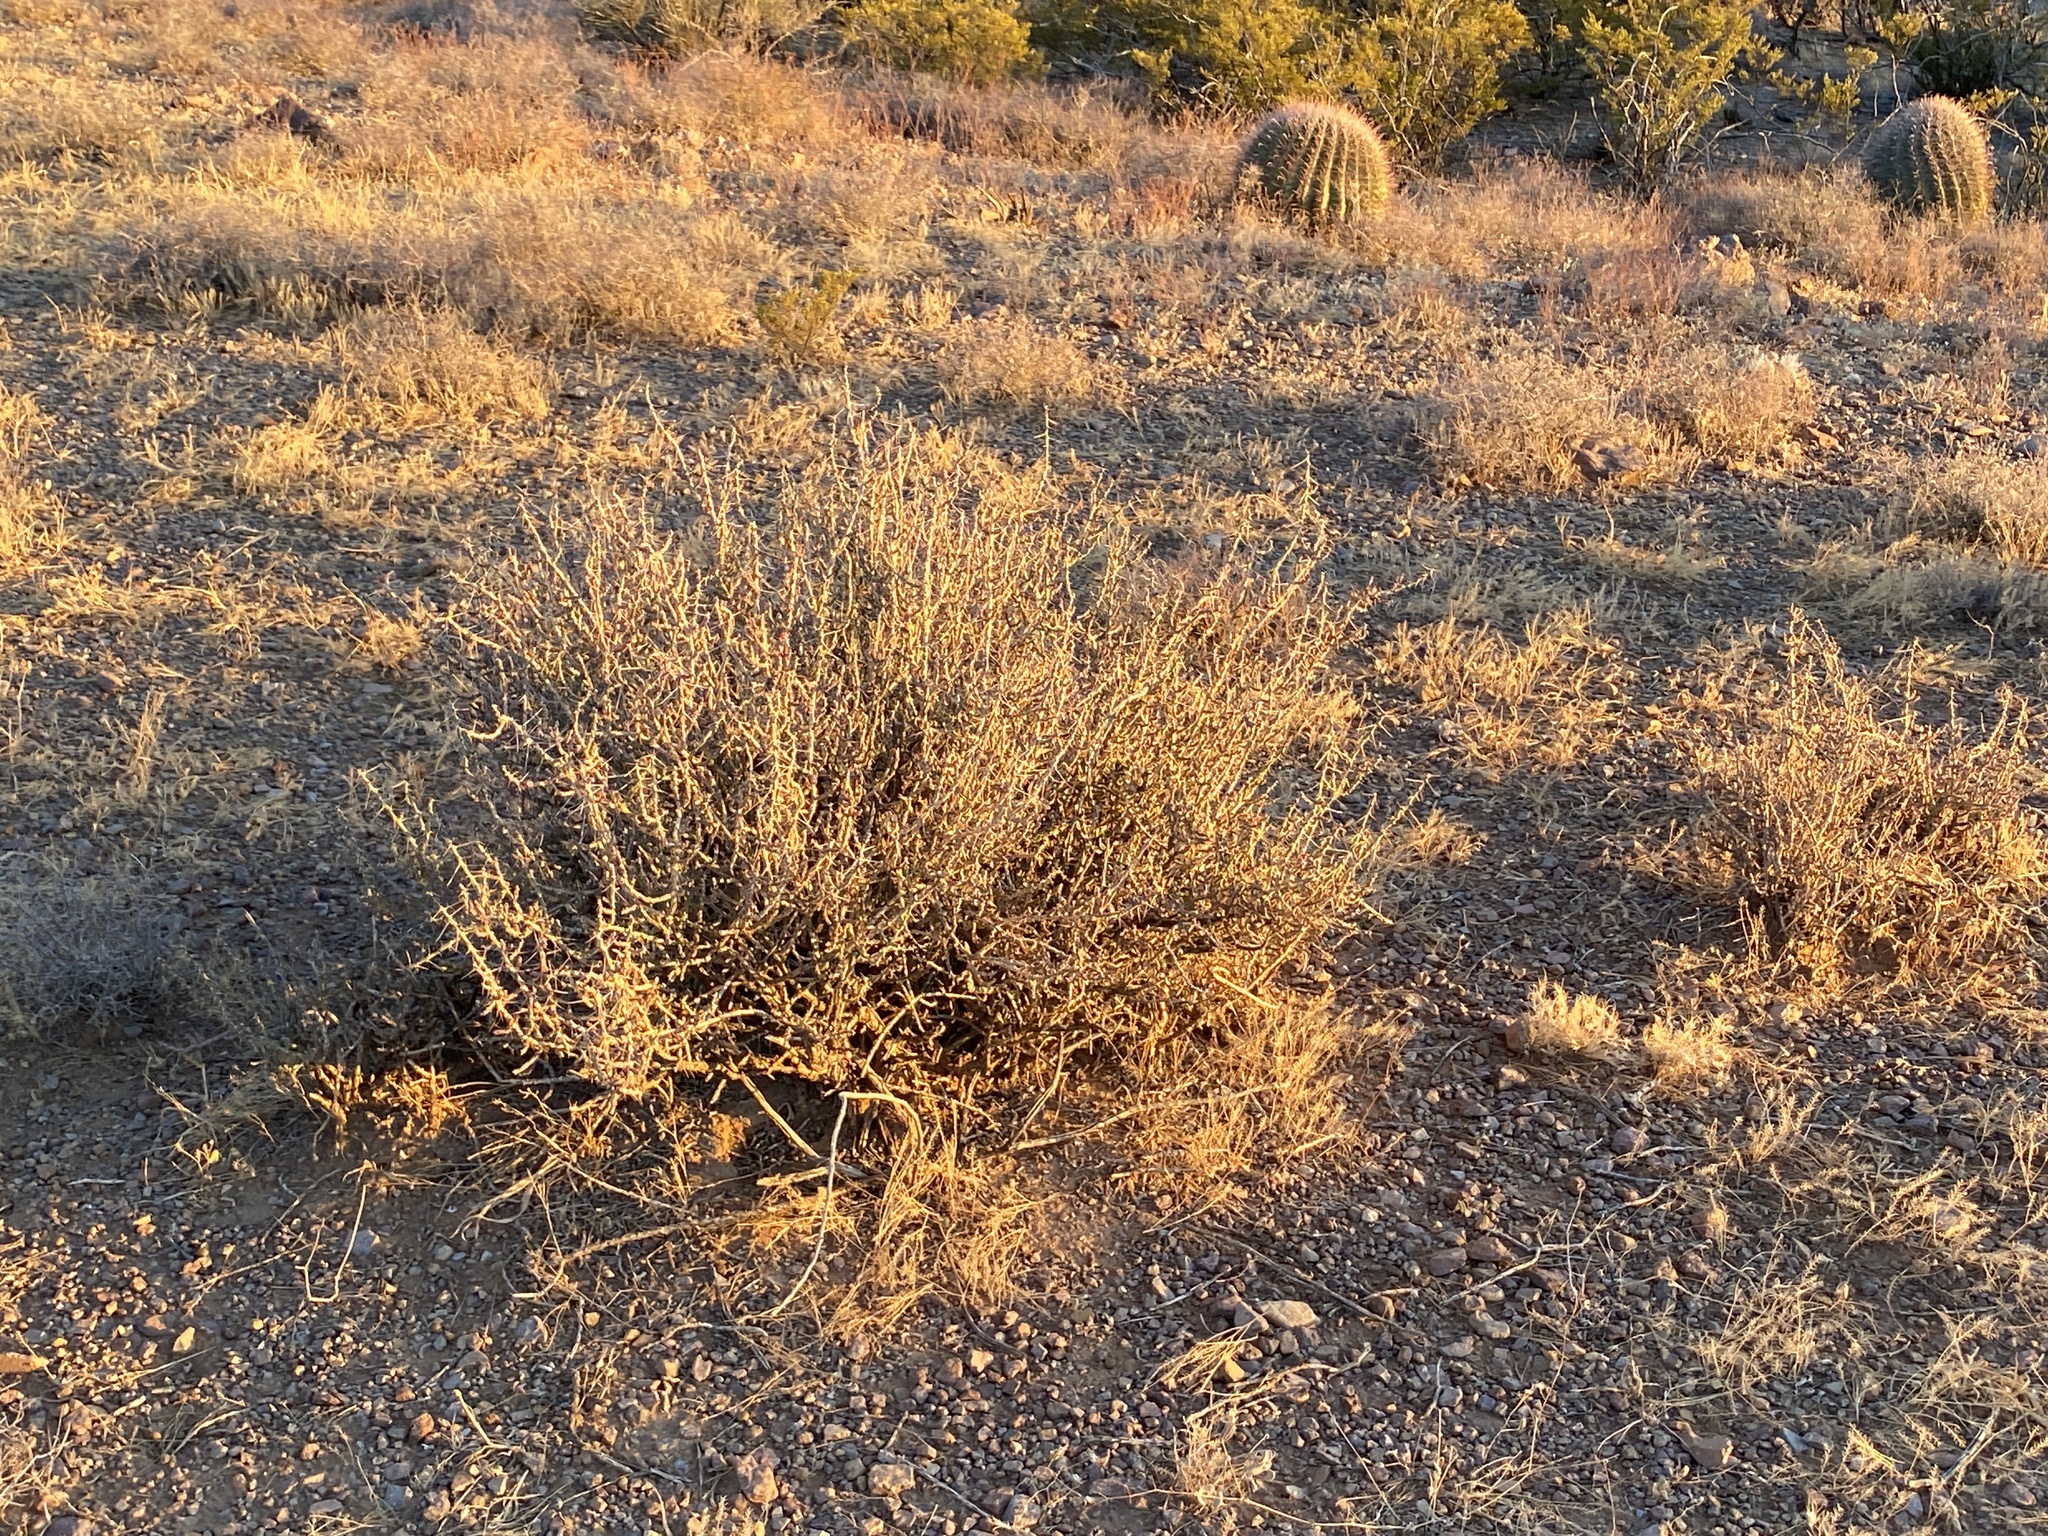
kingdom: Plantae
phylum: Tracheophyta
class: Magnoliopsida
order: Caryophyllales
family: Cactaceae
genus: Cylindropuntia
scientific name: Cylindropuntia leptocaulis
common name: Christmas cactus
